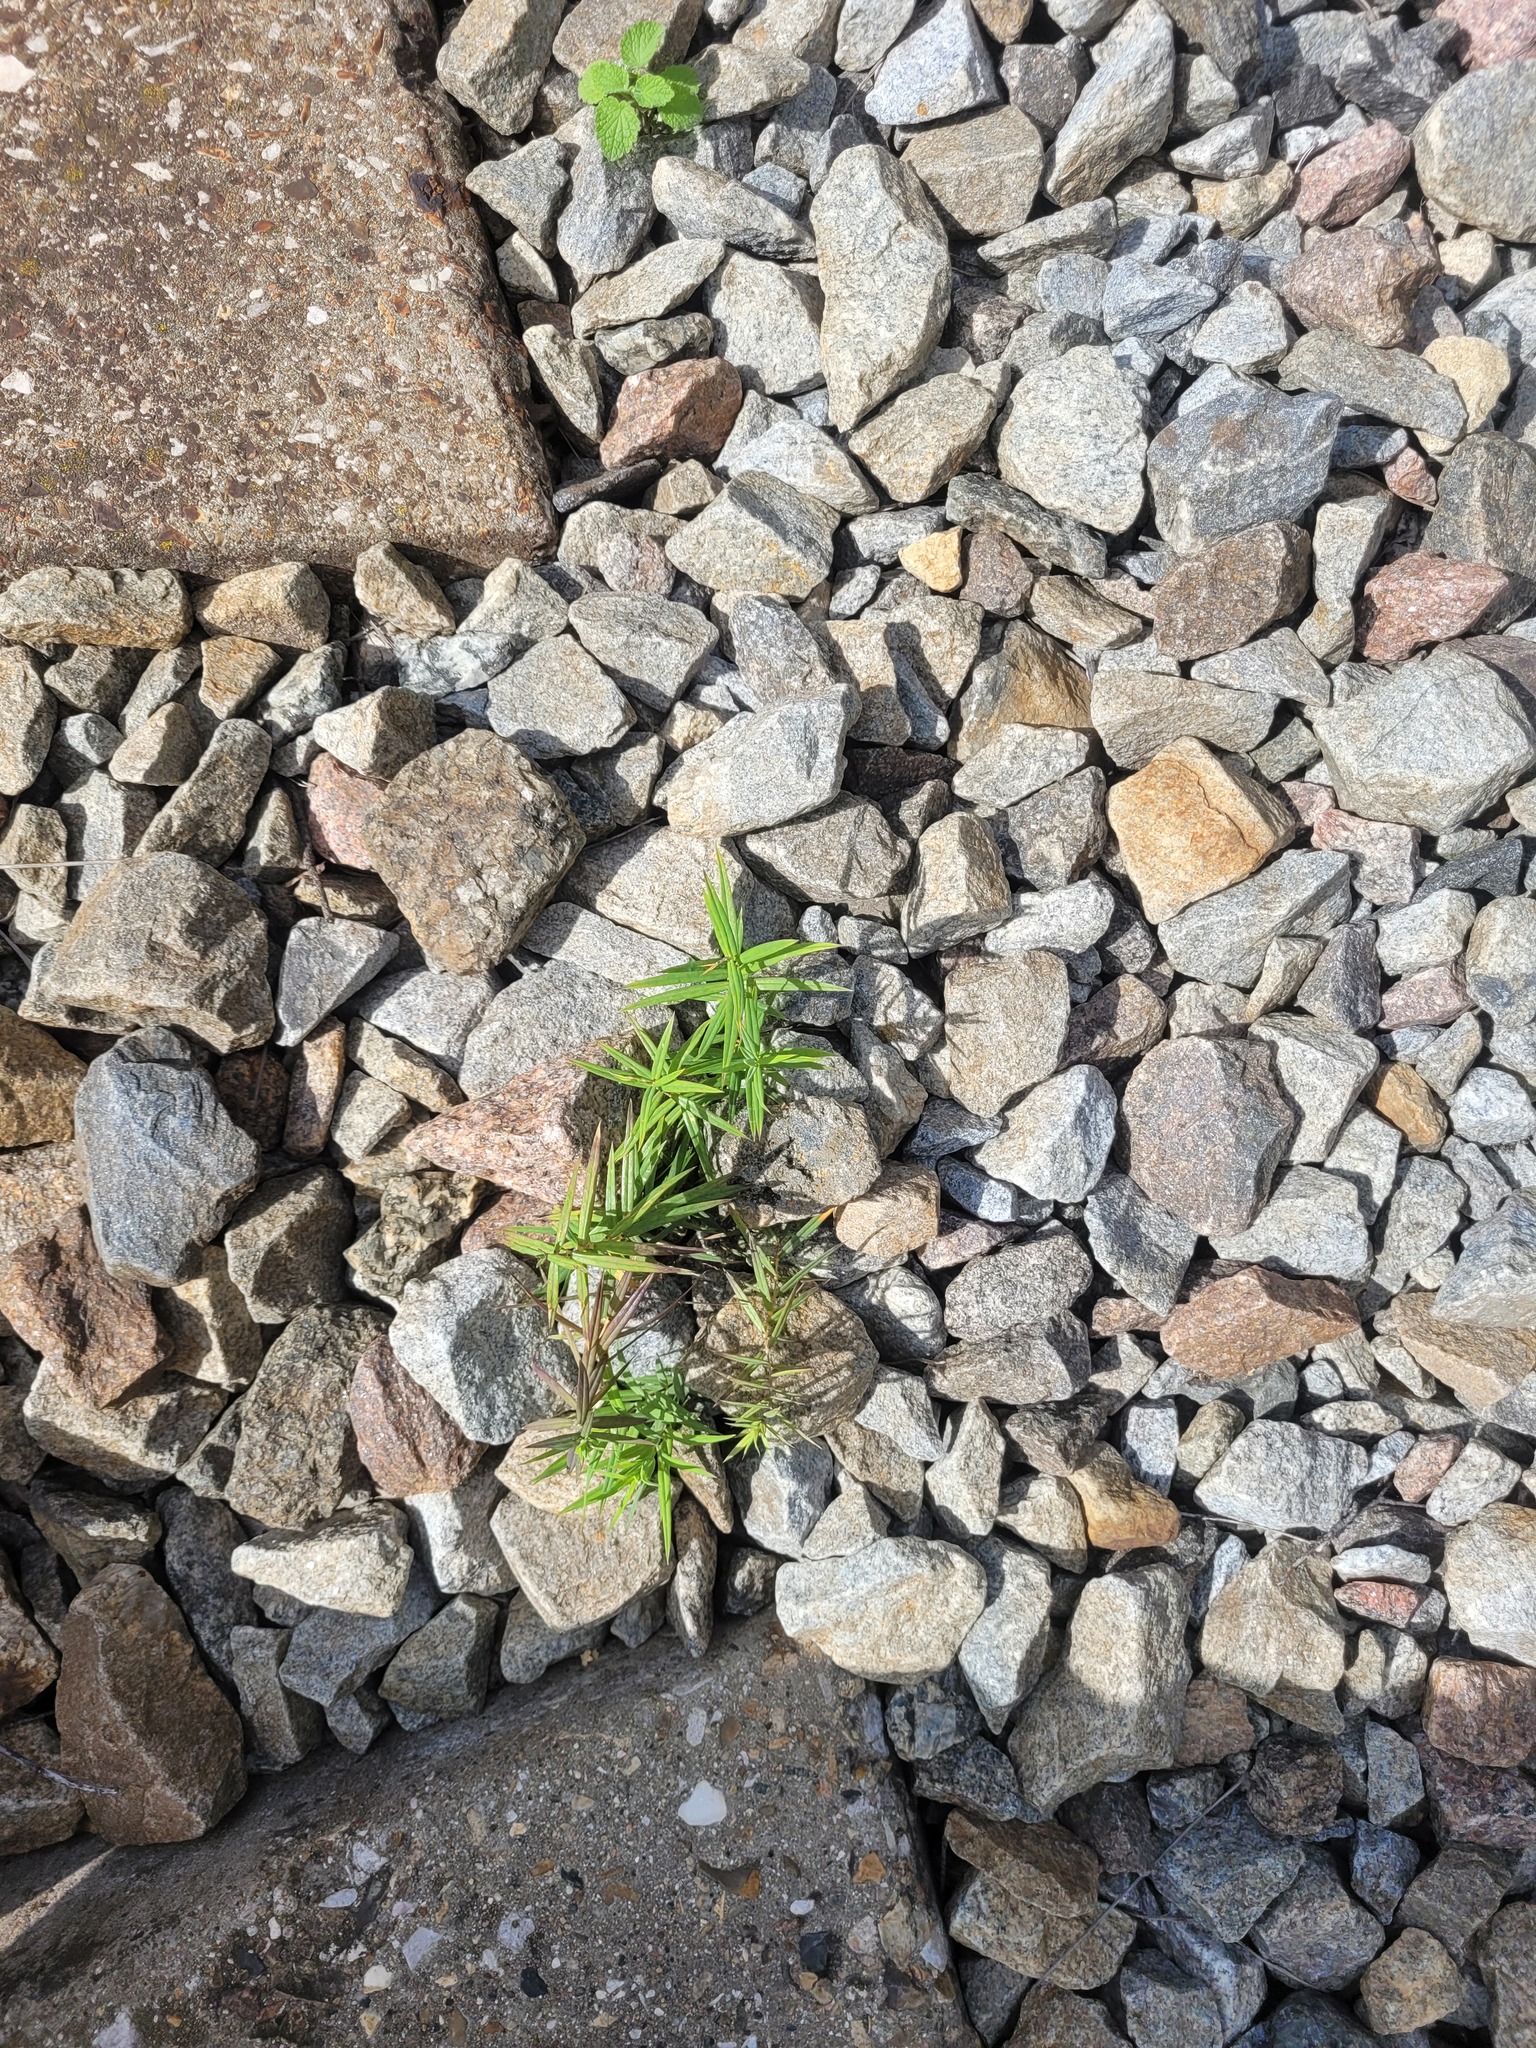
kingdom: Plantae
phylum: Tracheophyta
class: Magnoliopsida
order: Caryophyllales
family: Caryophyllaceae
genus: Rabelera
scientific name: Rabelera holostea
